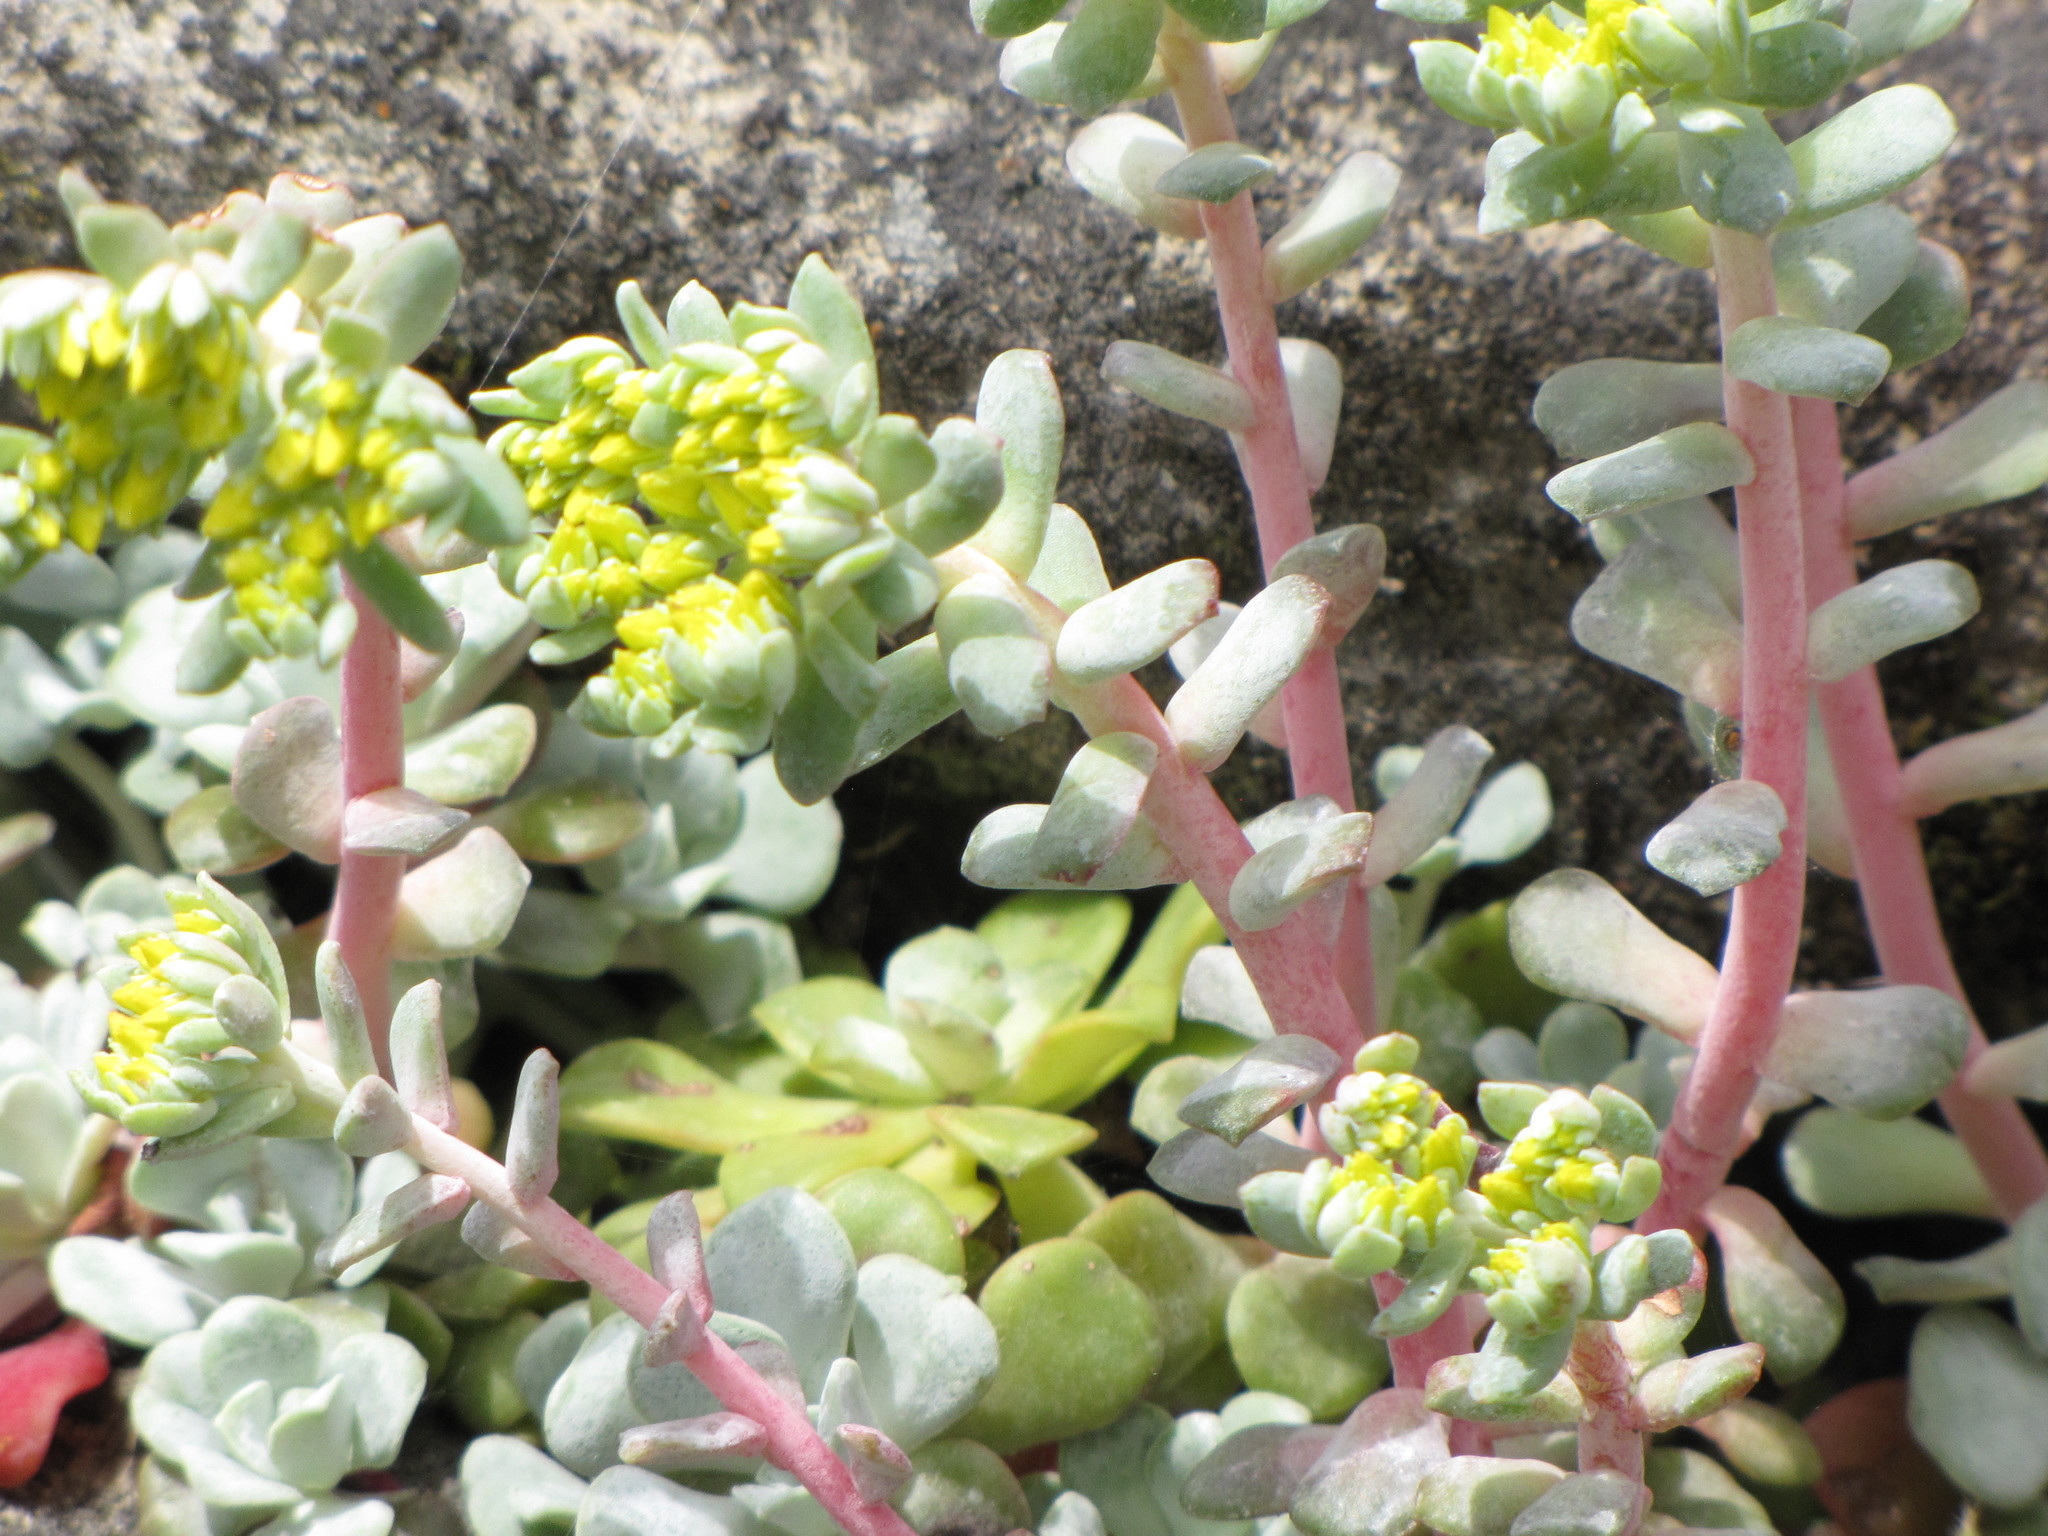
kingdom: Plantae
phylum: Tracheophyta
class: Magnoliopsida
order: Saxifragales
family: Crassulaceae
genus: Sedum
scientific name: Sedum spathulifolium
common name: Colorado stonecrop
